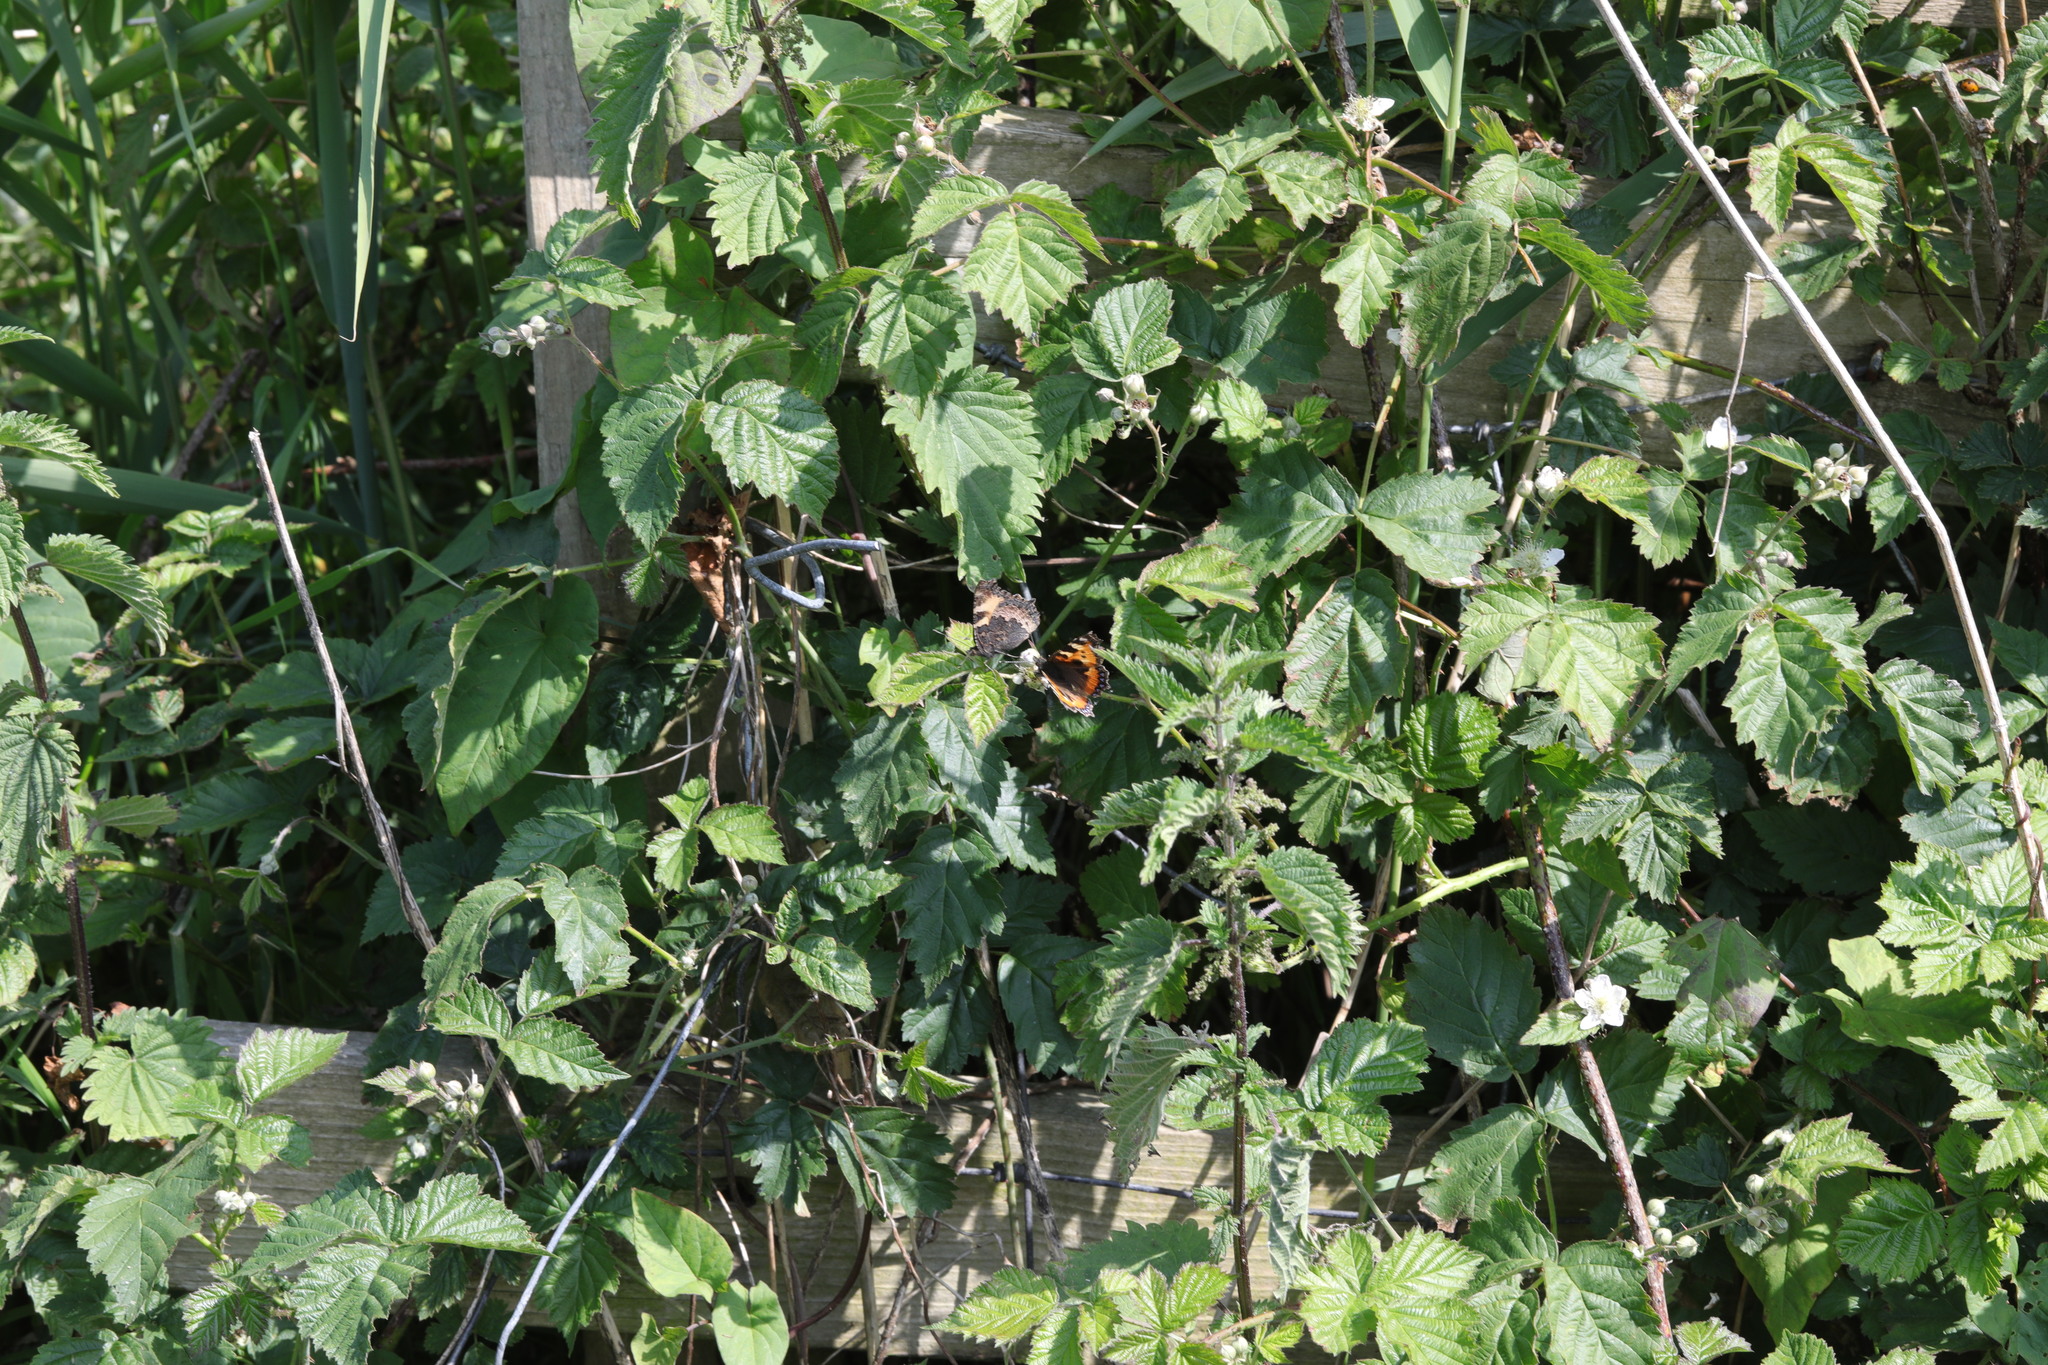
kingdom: Animalia
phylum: Arthropoda
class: Insecta
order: Lepidoptera
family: Nymphalidae
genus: Aglais
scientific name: Aglais urticae
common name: Small tortoiseshell
